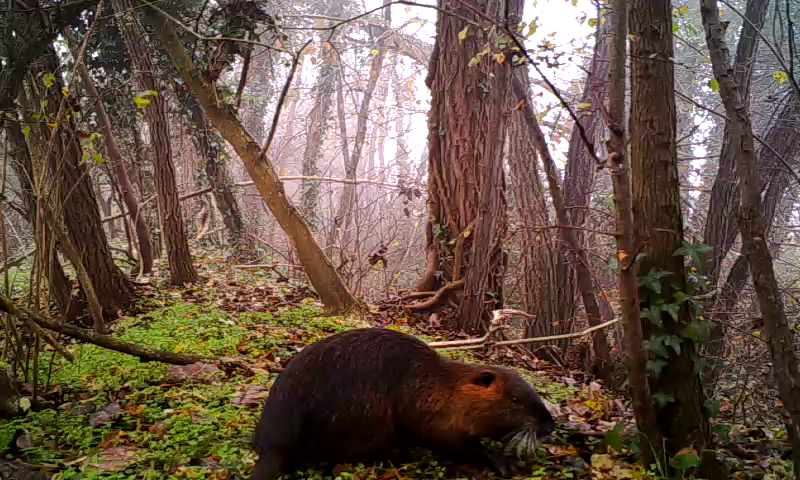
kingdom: Animalia
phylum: Chordata
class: Mammalia
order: Rodentia
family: Myocastoridae
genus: Myocastor
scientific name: Myocastor coypus
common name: Coypu
